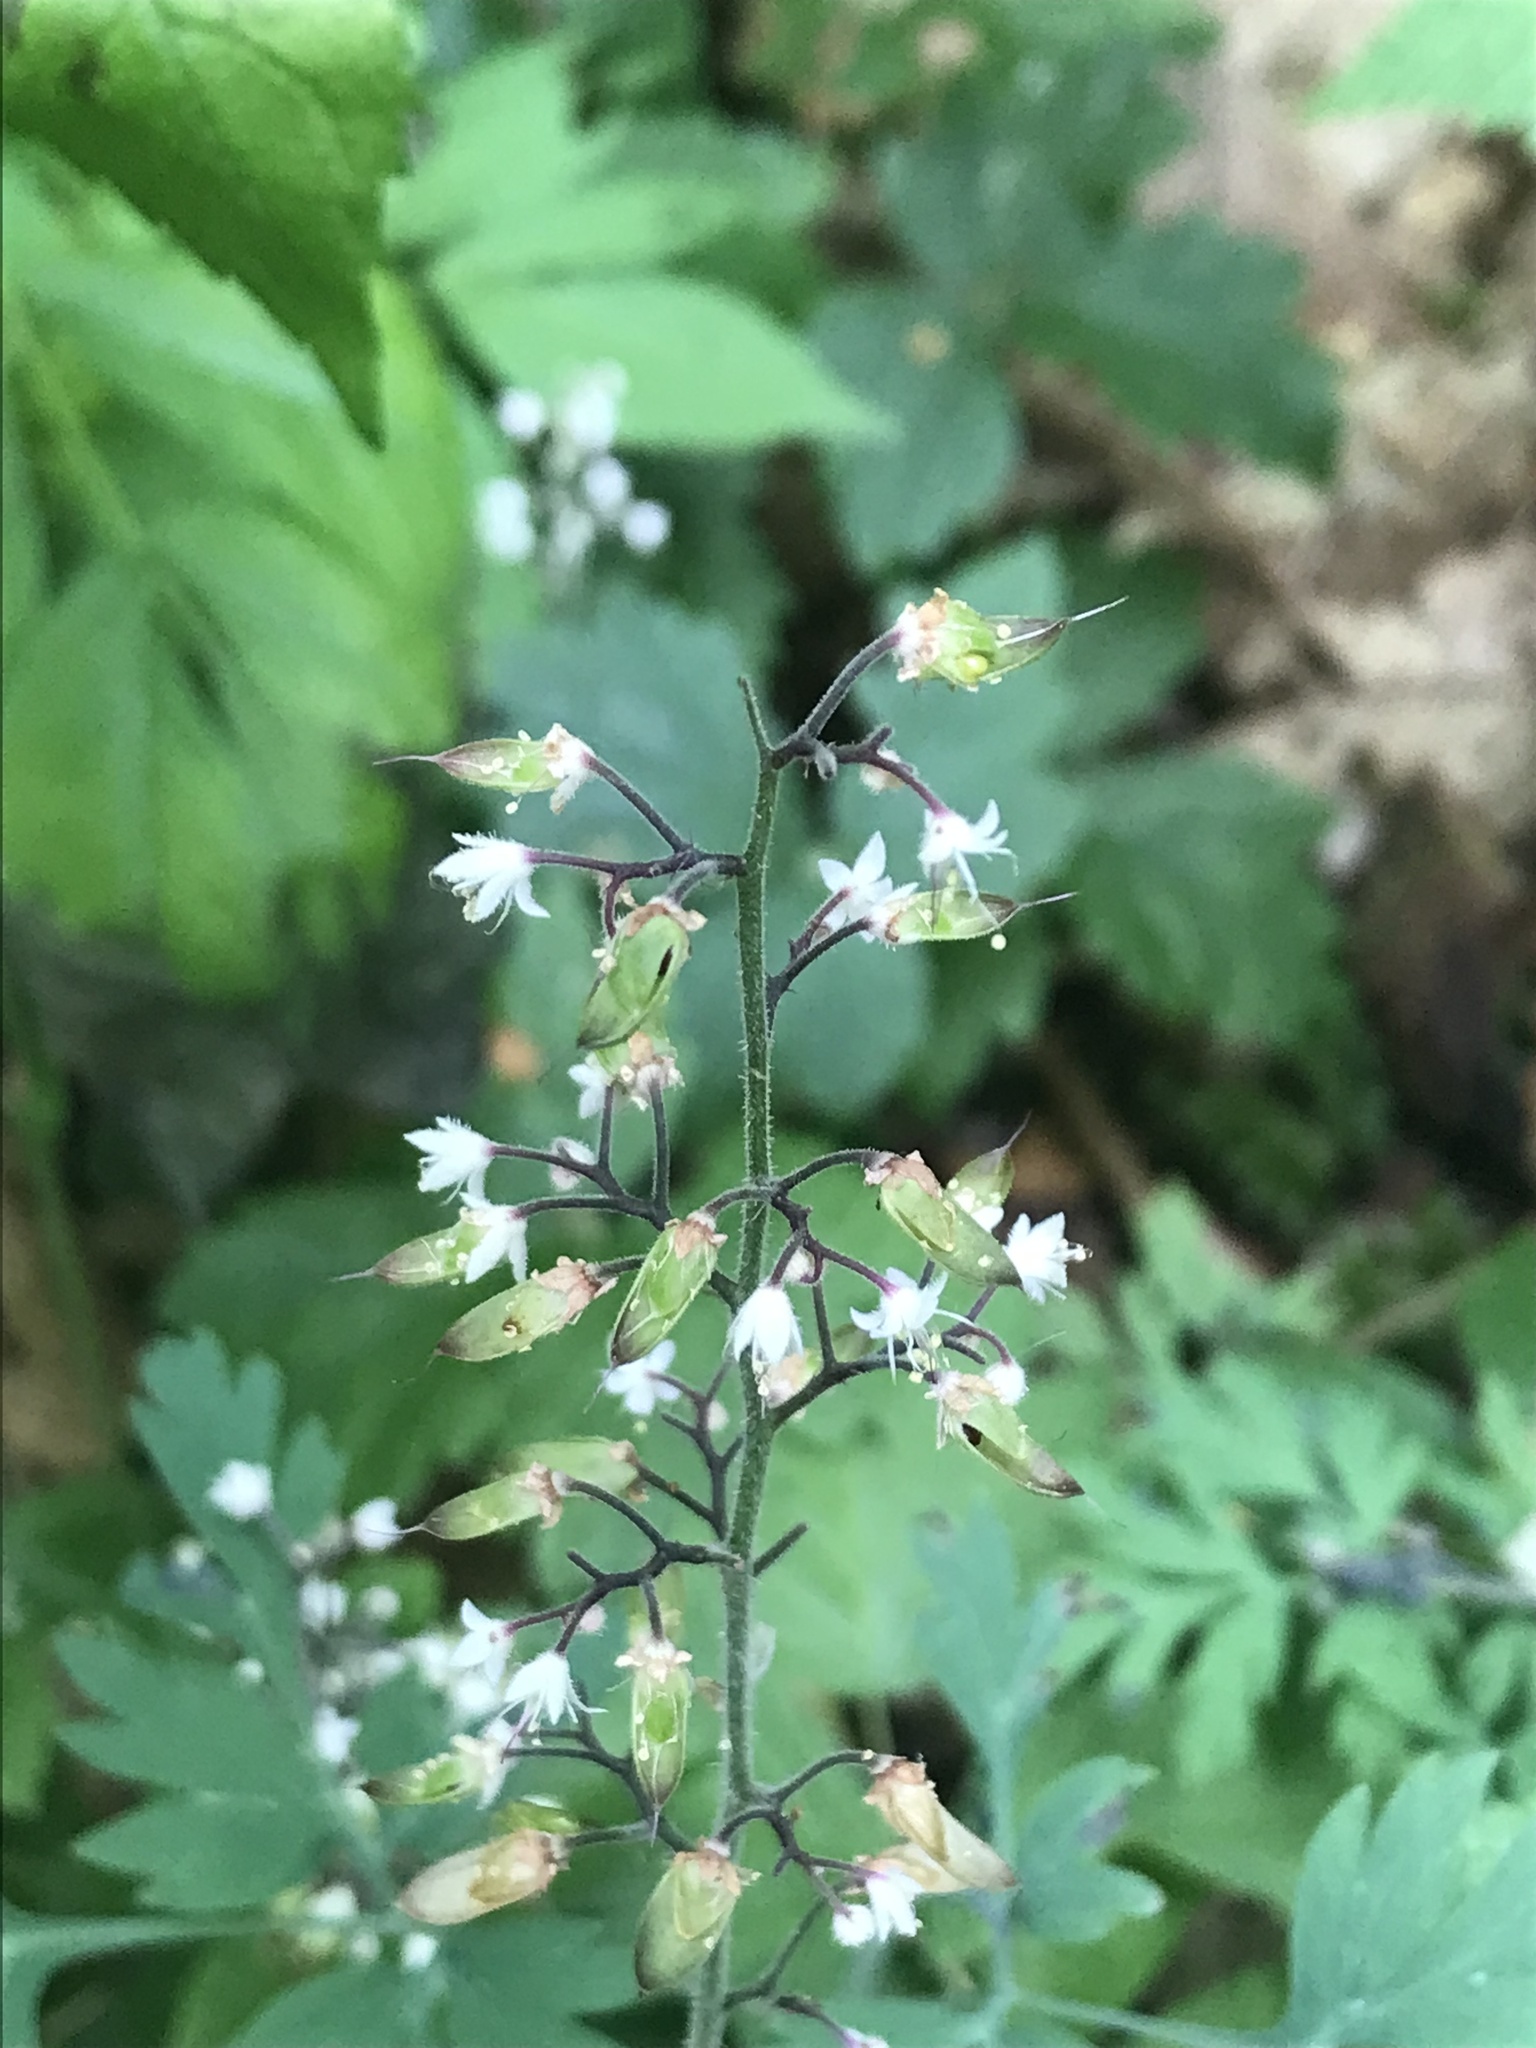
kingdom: Plantae
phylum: Tracheophyta
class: Magnoliopsida
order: Saxifragales
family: Saxifragaceae
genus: Tiarella
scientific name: Tiarella trifoliata
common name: Sugar-scoop
